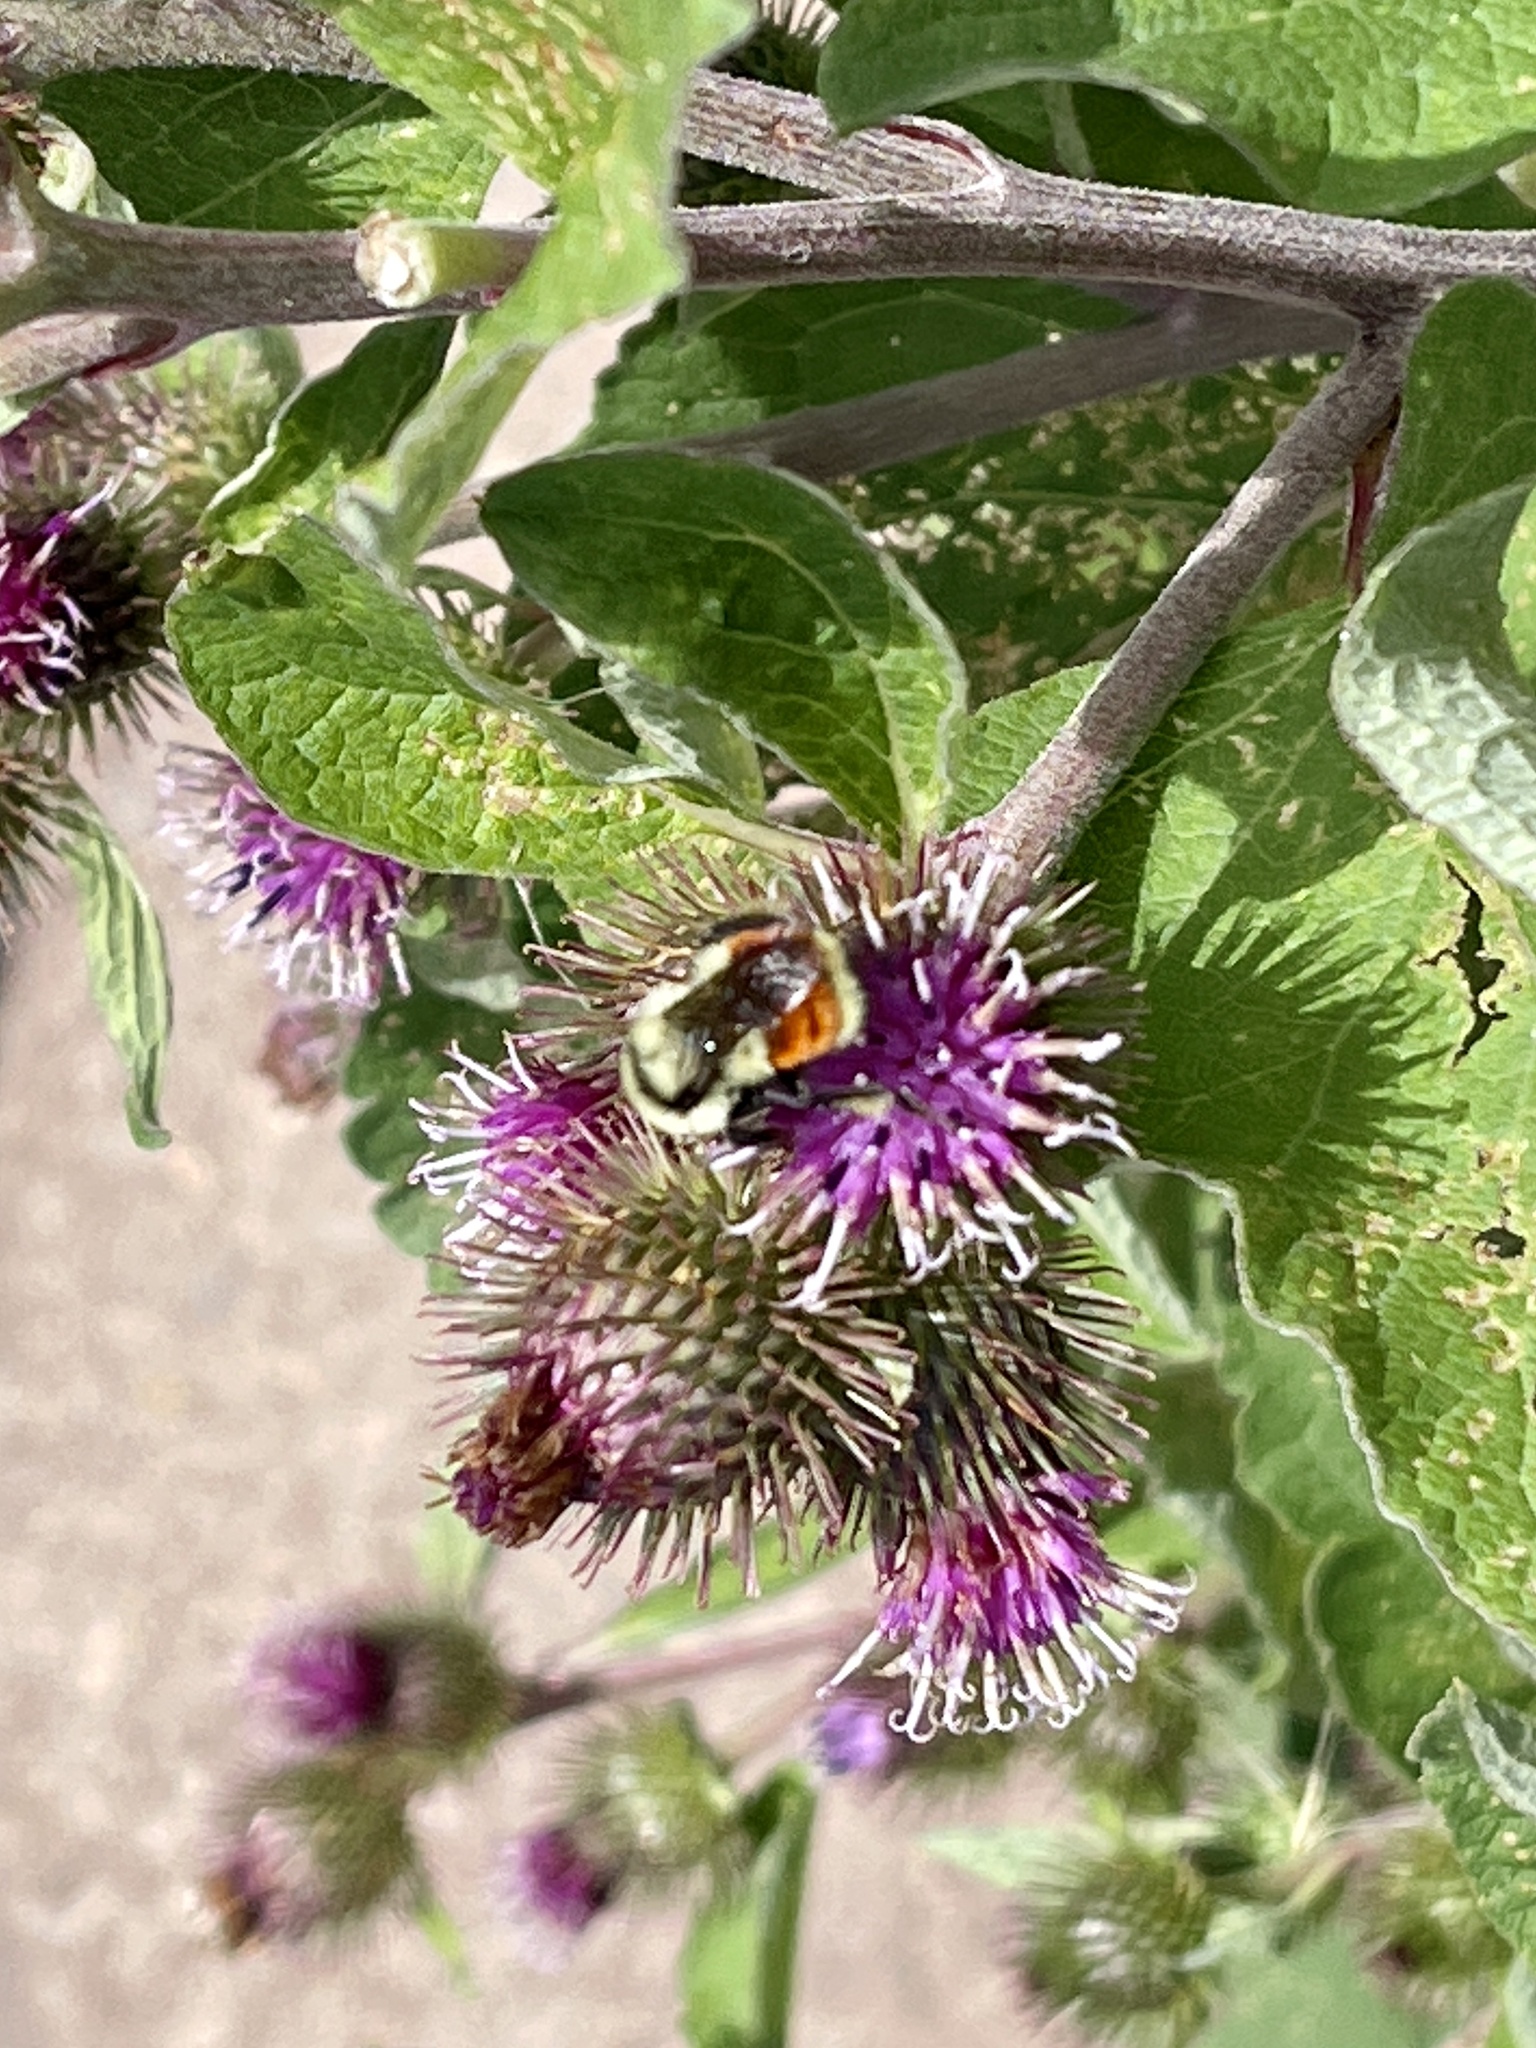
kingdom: Animalia
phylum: Arthropoda
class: Insecta
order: Hymenoptera
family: Apidae
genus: Bombus
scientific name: Bombus huntii
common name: Hunt bumble bee
